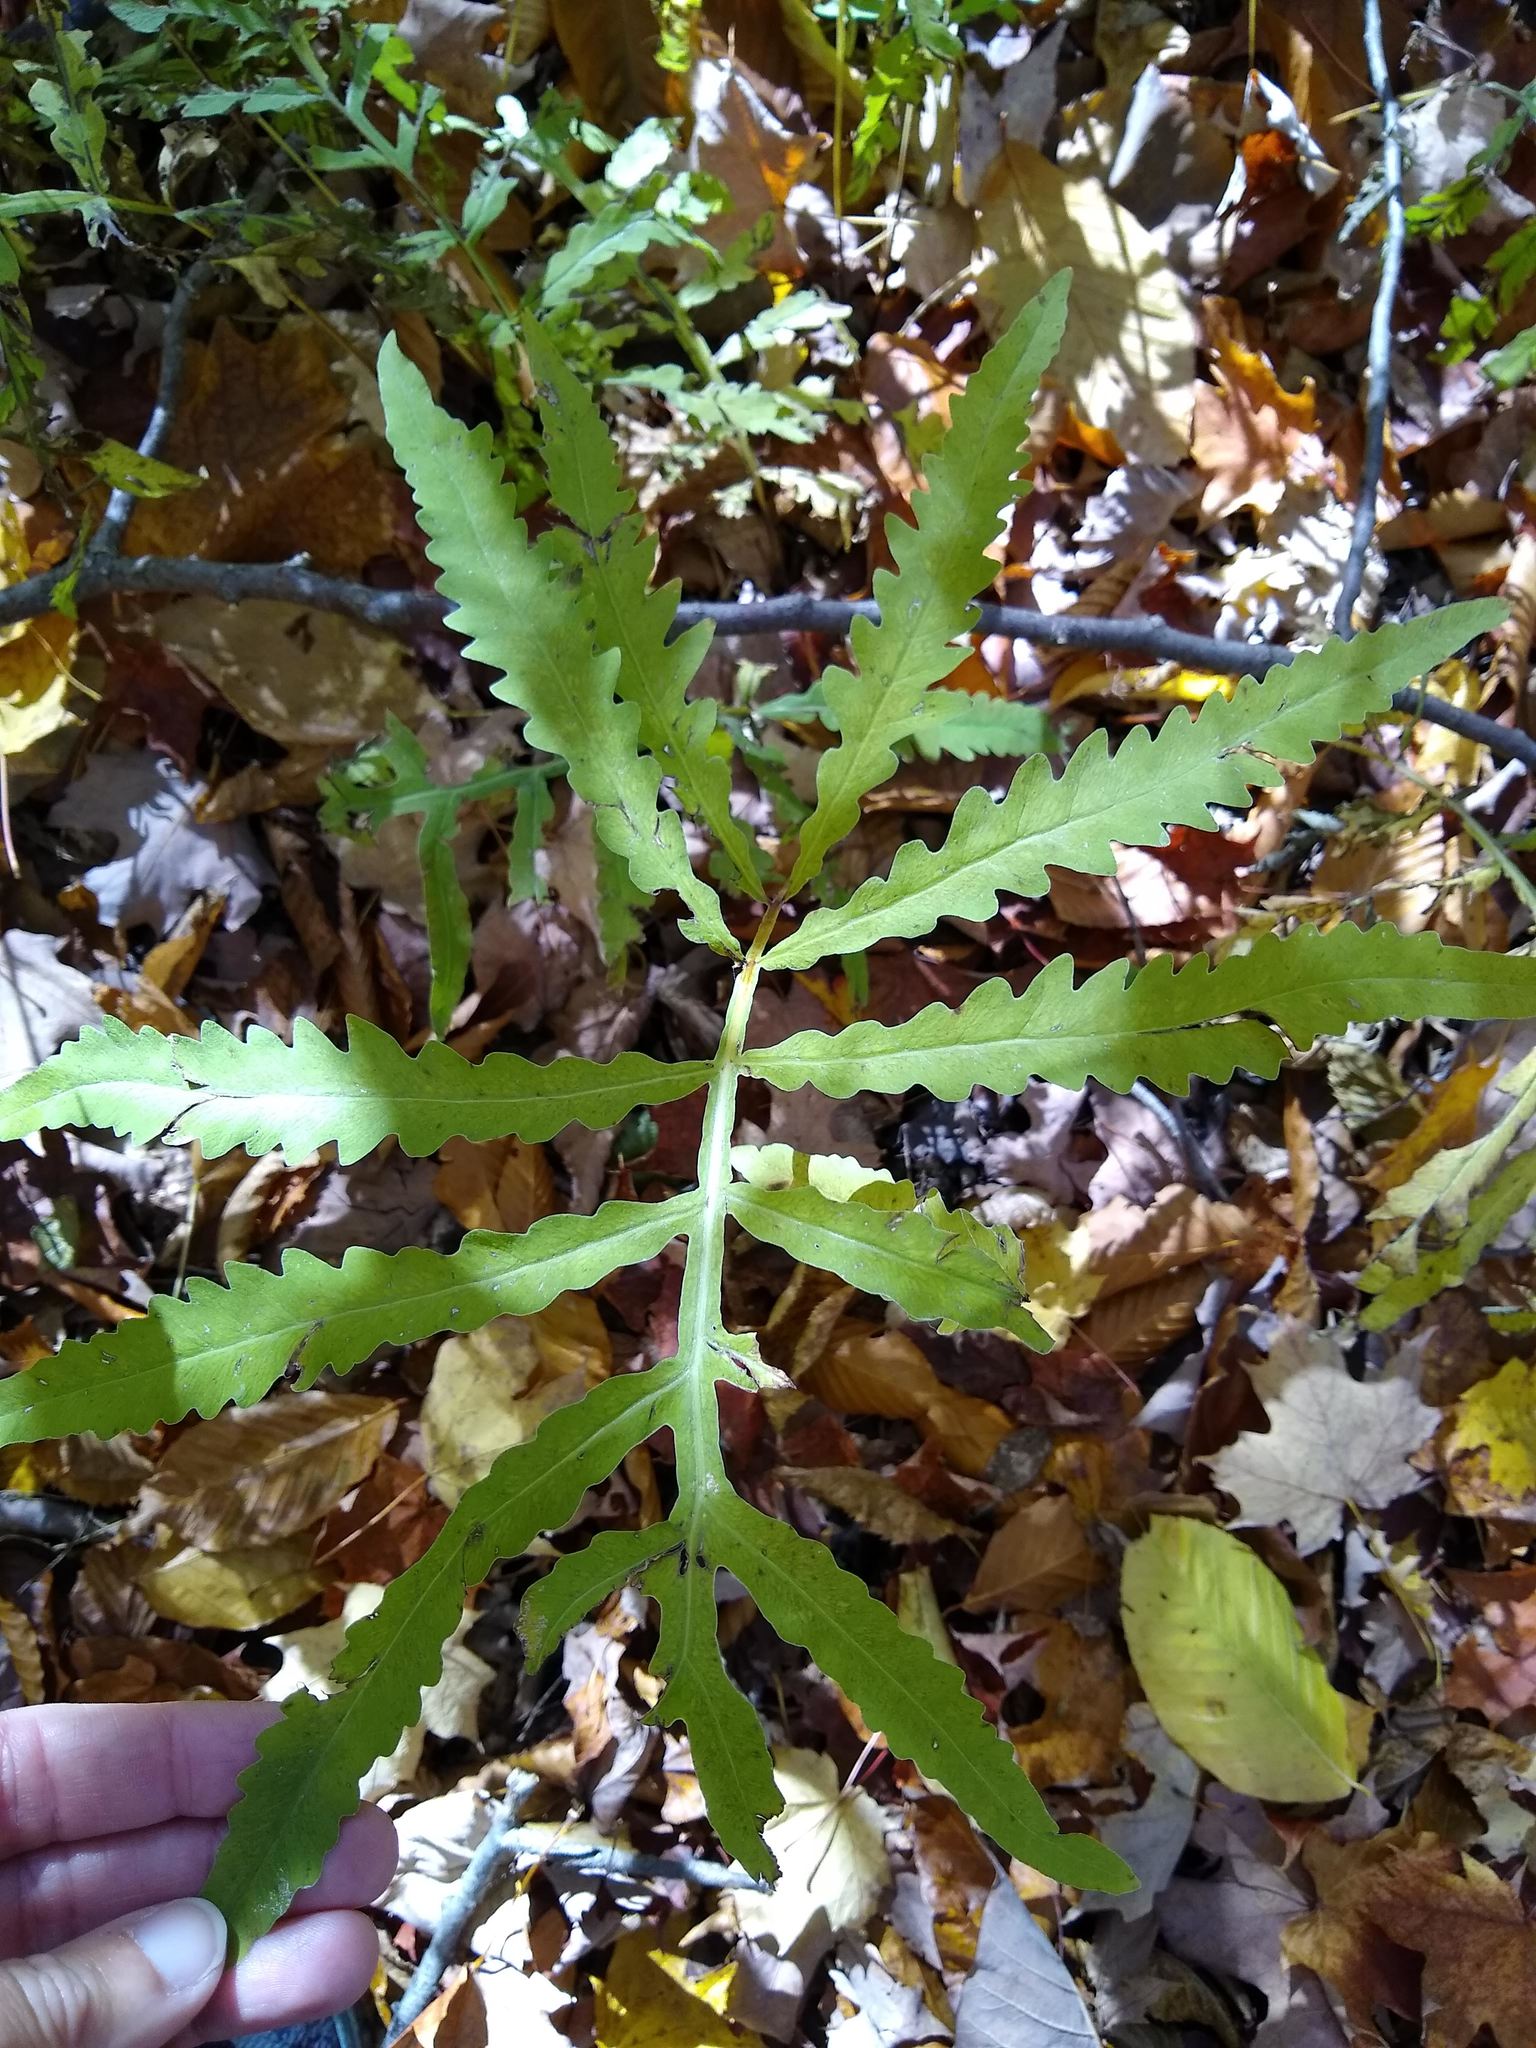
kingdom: Plantae
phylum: Tracheophyta
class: Polypodiopsida
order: Polypodiales
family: Onocleaceae
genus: Onoclea
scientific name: Onoclea sensibilis
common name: Sensitive fern
